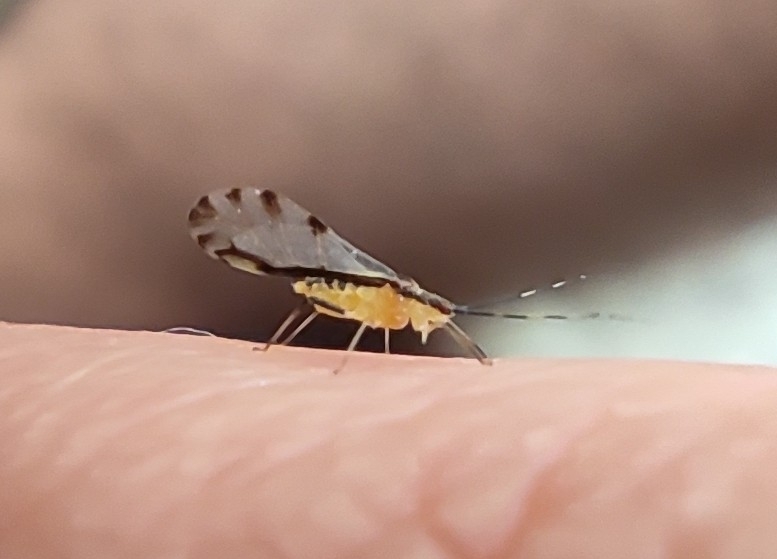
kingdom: Animalia
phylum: Arthropoda
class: Insecta
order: Hemiptera
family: Aphididae
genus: Eucallipterus
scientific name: Eucallipterus tiliae
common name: Aphid
